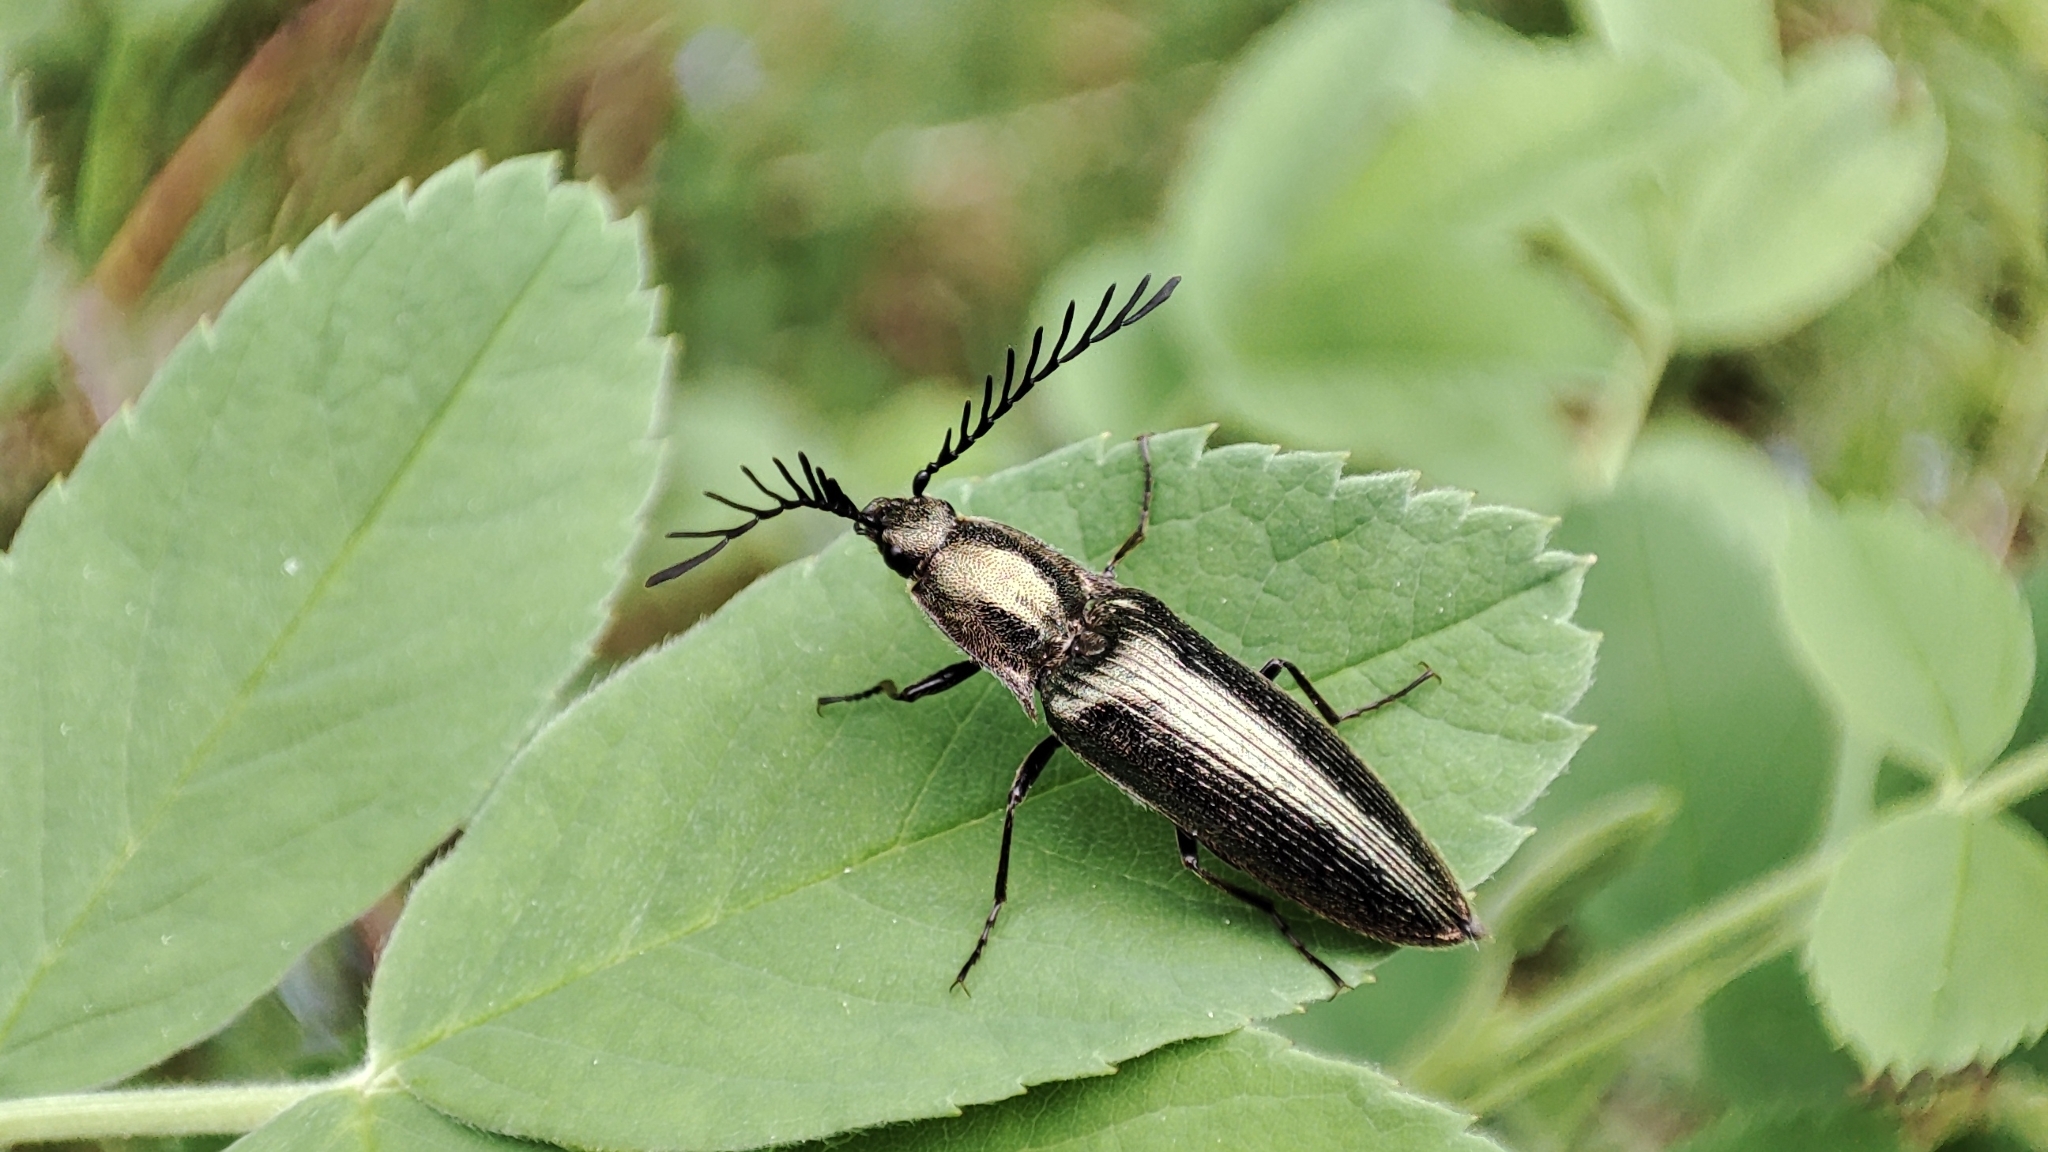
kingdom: Animalia
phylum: Arthropoda
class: Insecta
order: Coleoptera
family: Elateridae
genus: Ctenicera
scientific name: Ctenicera pectinicornis
